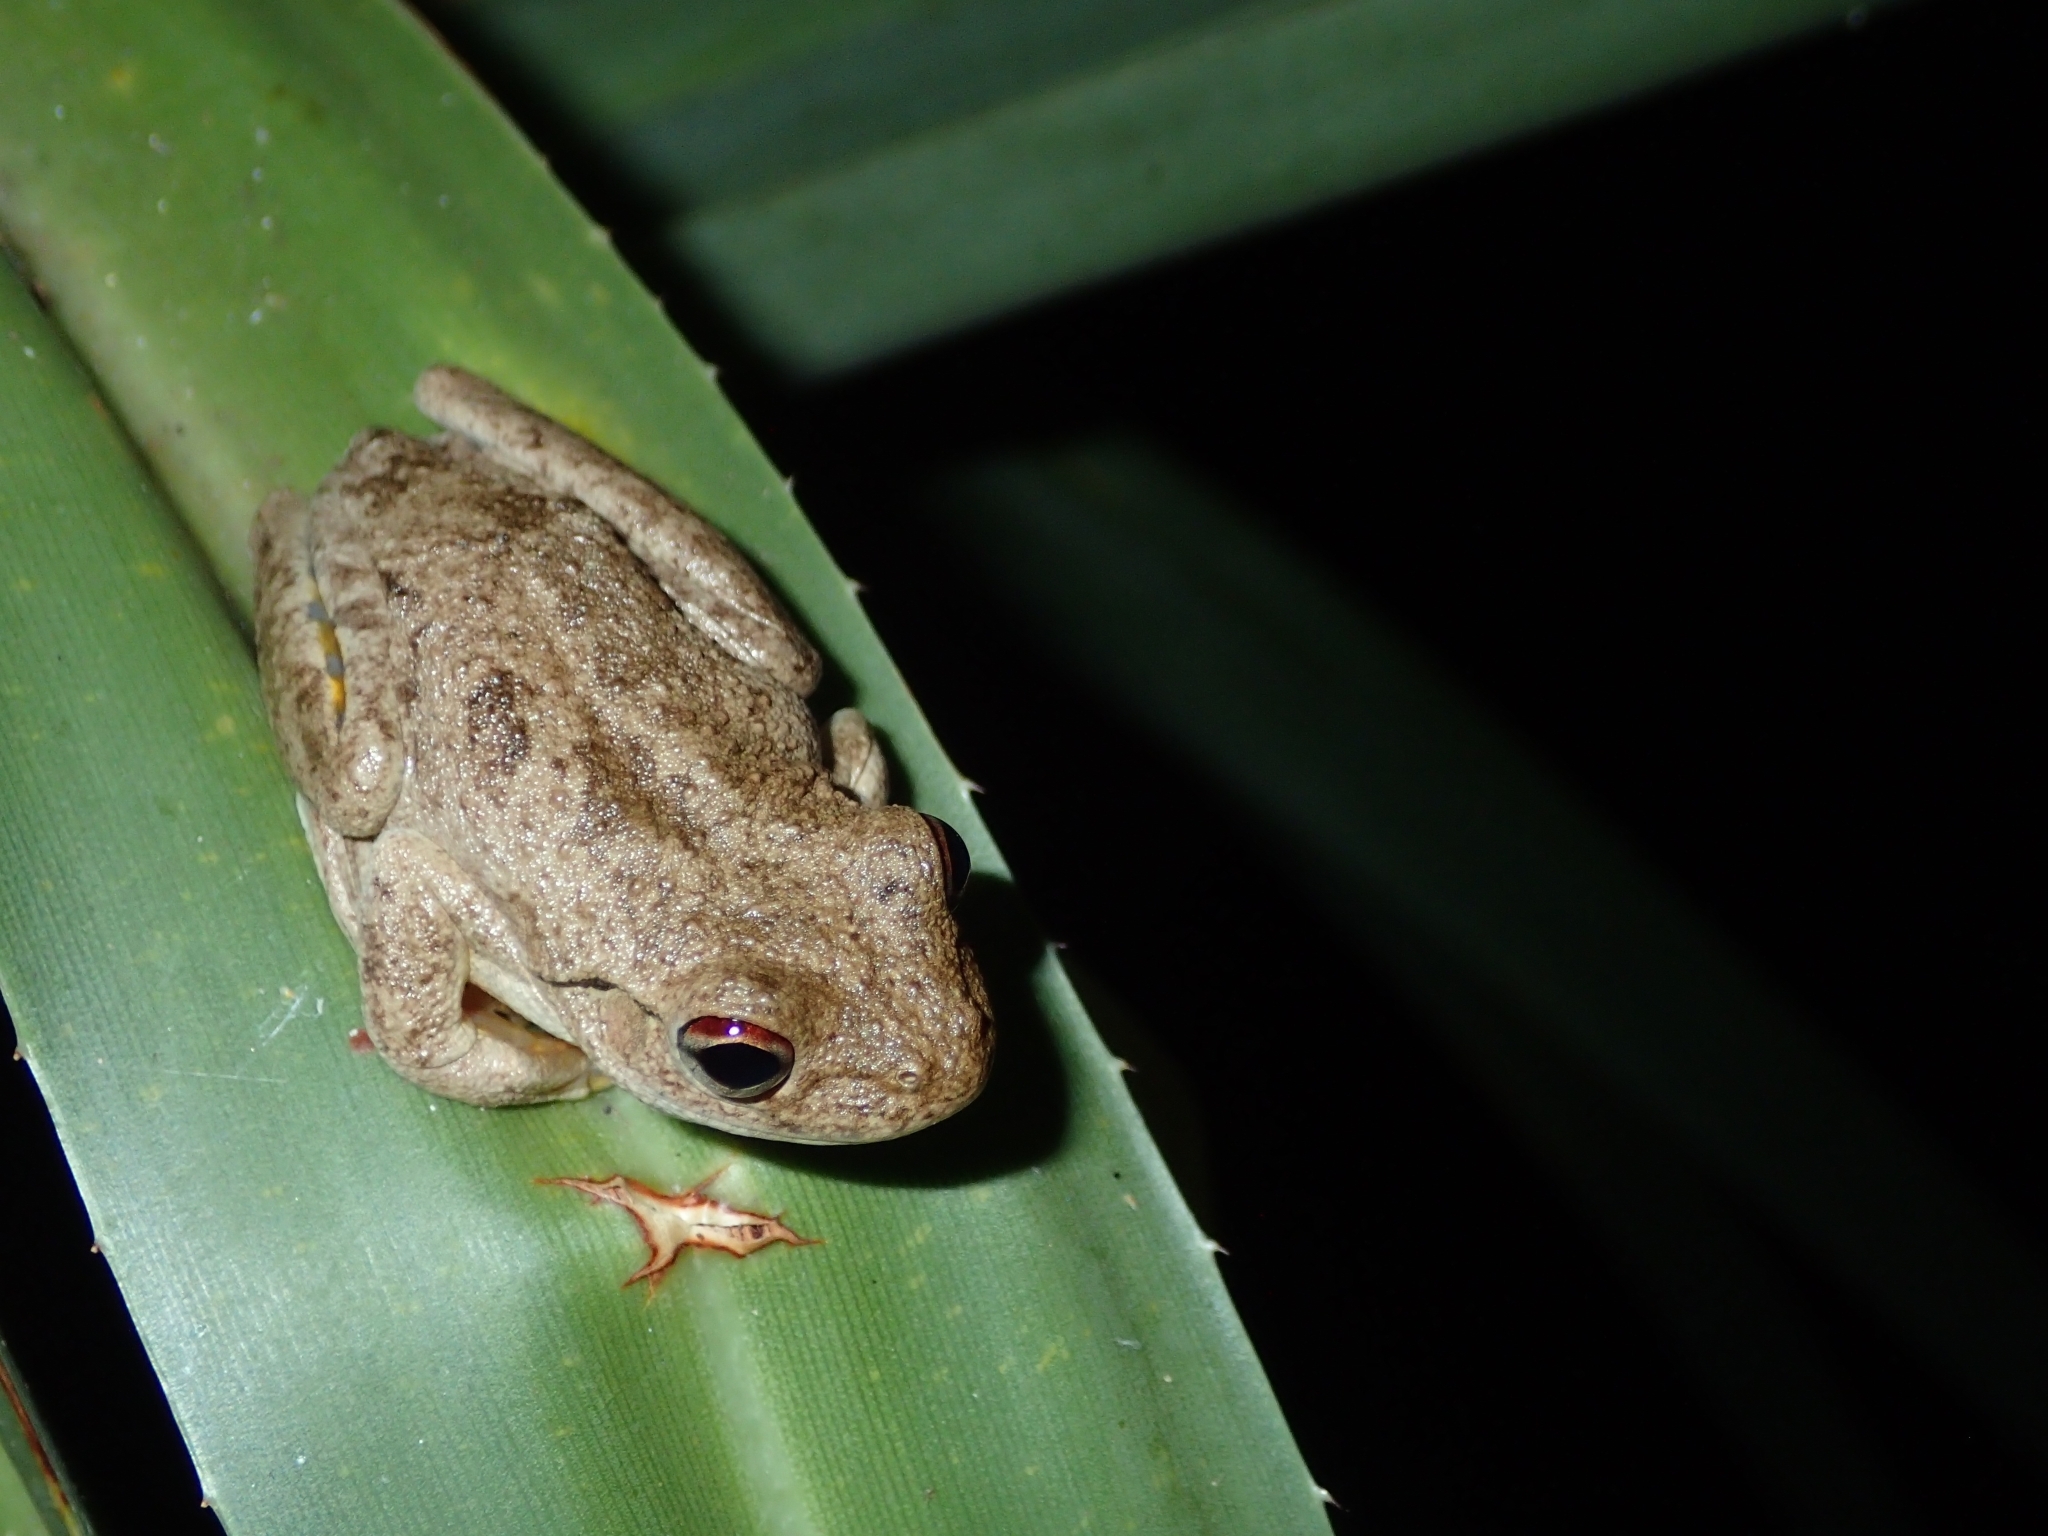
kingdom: Animalia
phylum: Chordata
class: Amphibia
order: Anura
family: Pelodryadidae
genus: Litoria
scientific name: Litoria
